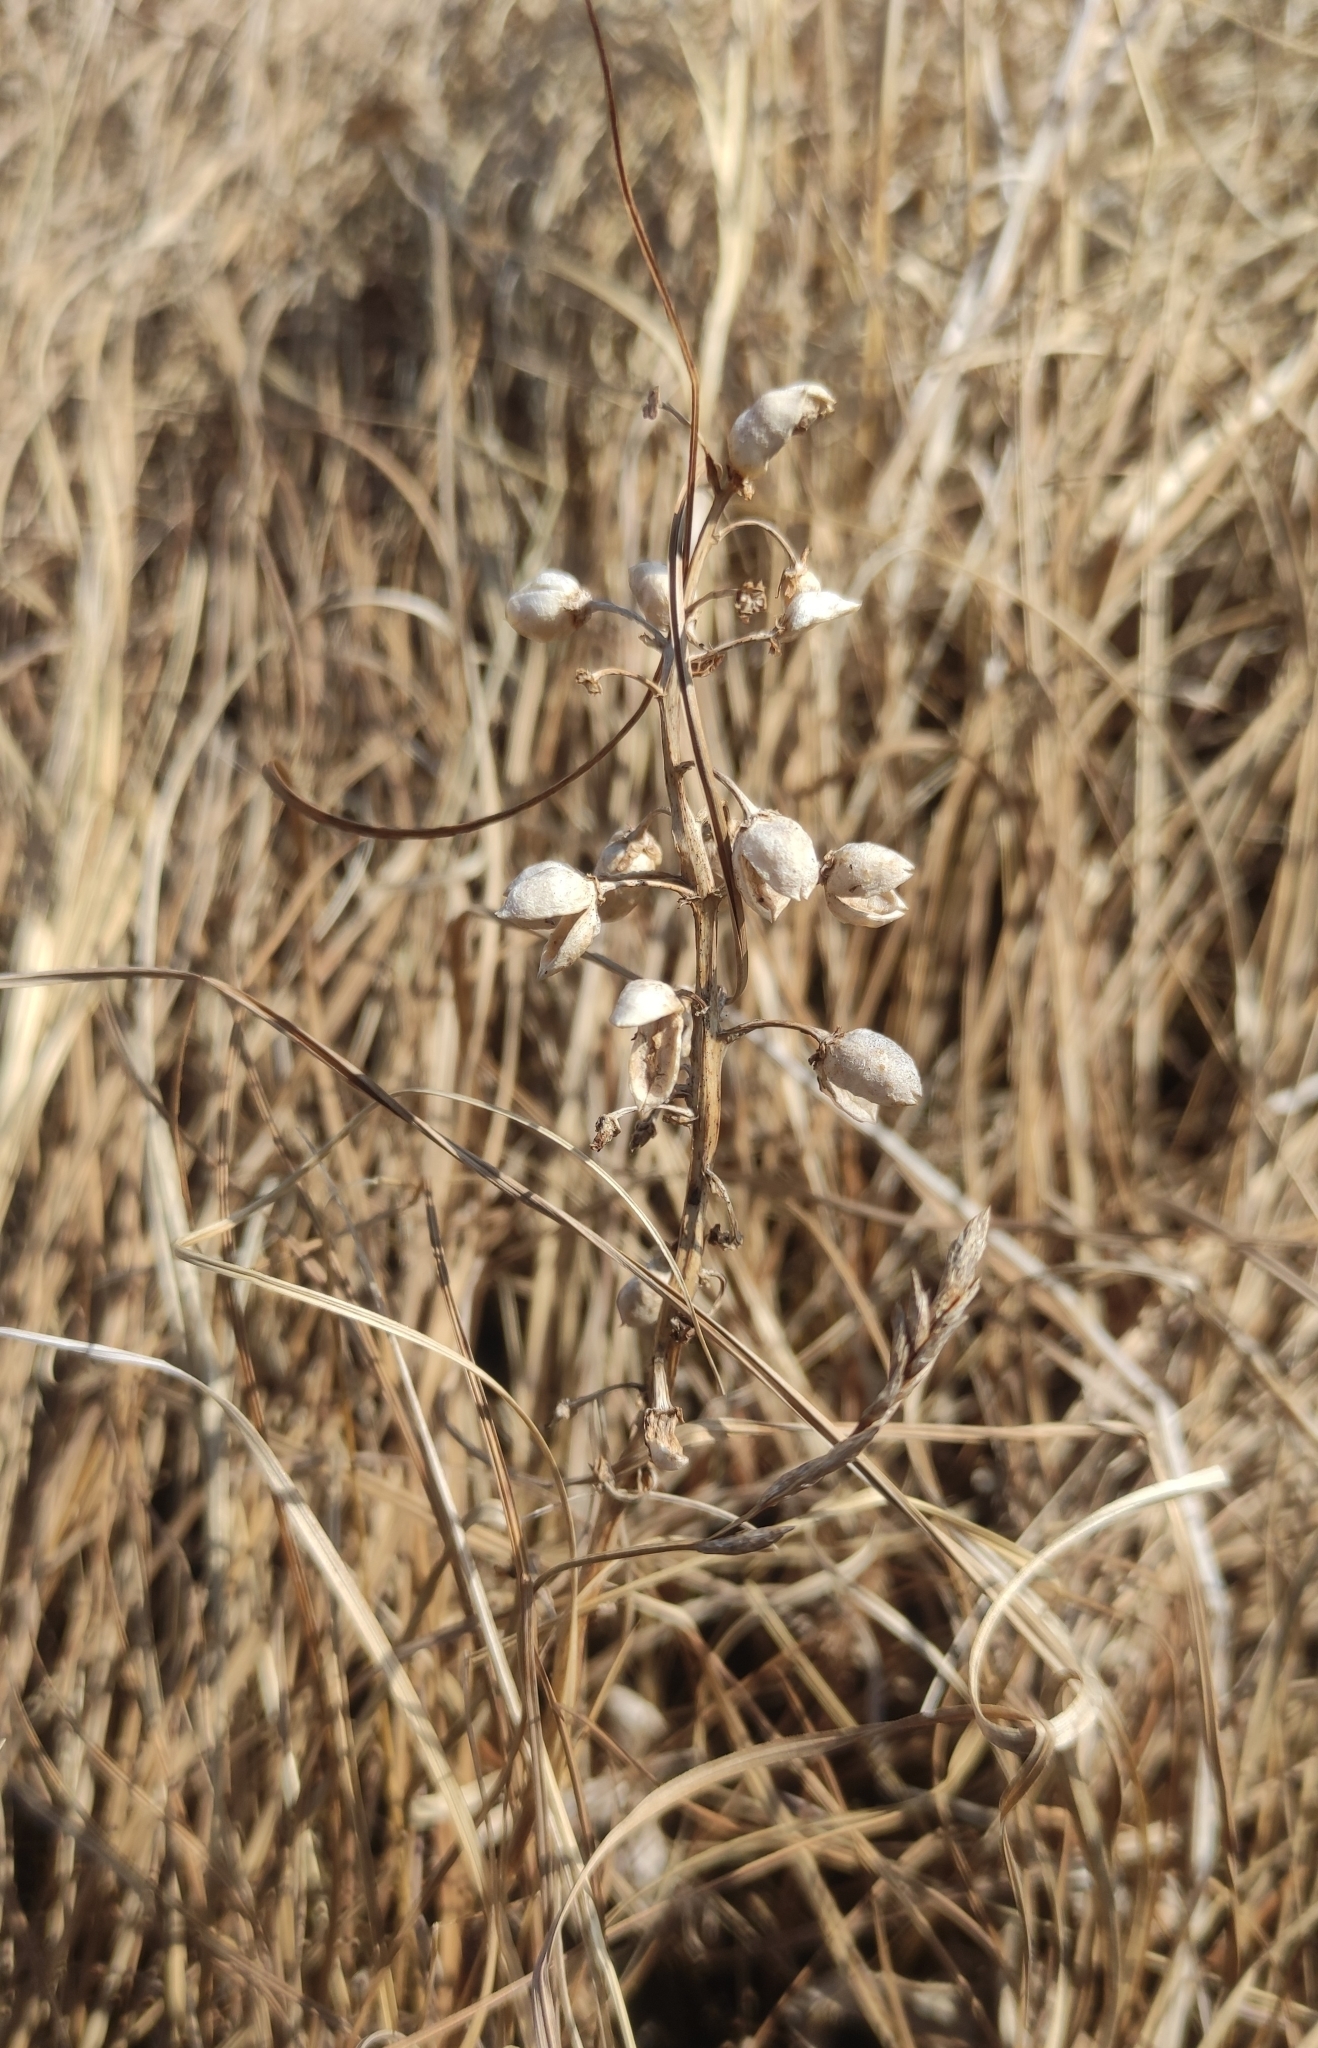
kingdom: Plantae
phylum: Tracheophyta
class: Magnoliopsida
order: Asterales
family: Menyanthaceae
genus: Menyanthes
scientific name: Menyanthes trifoliata
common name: Bogbean
